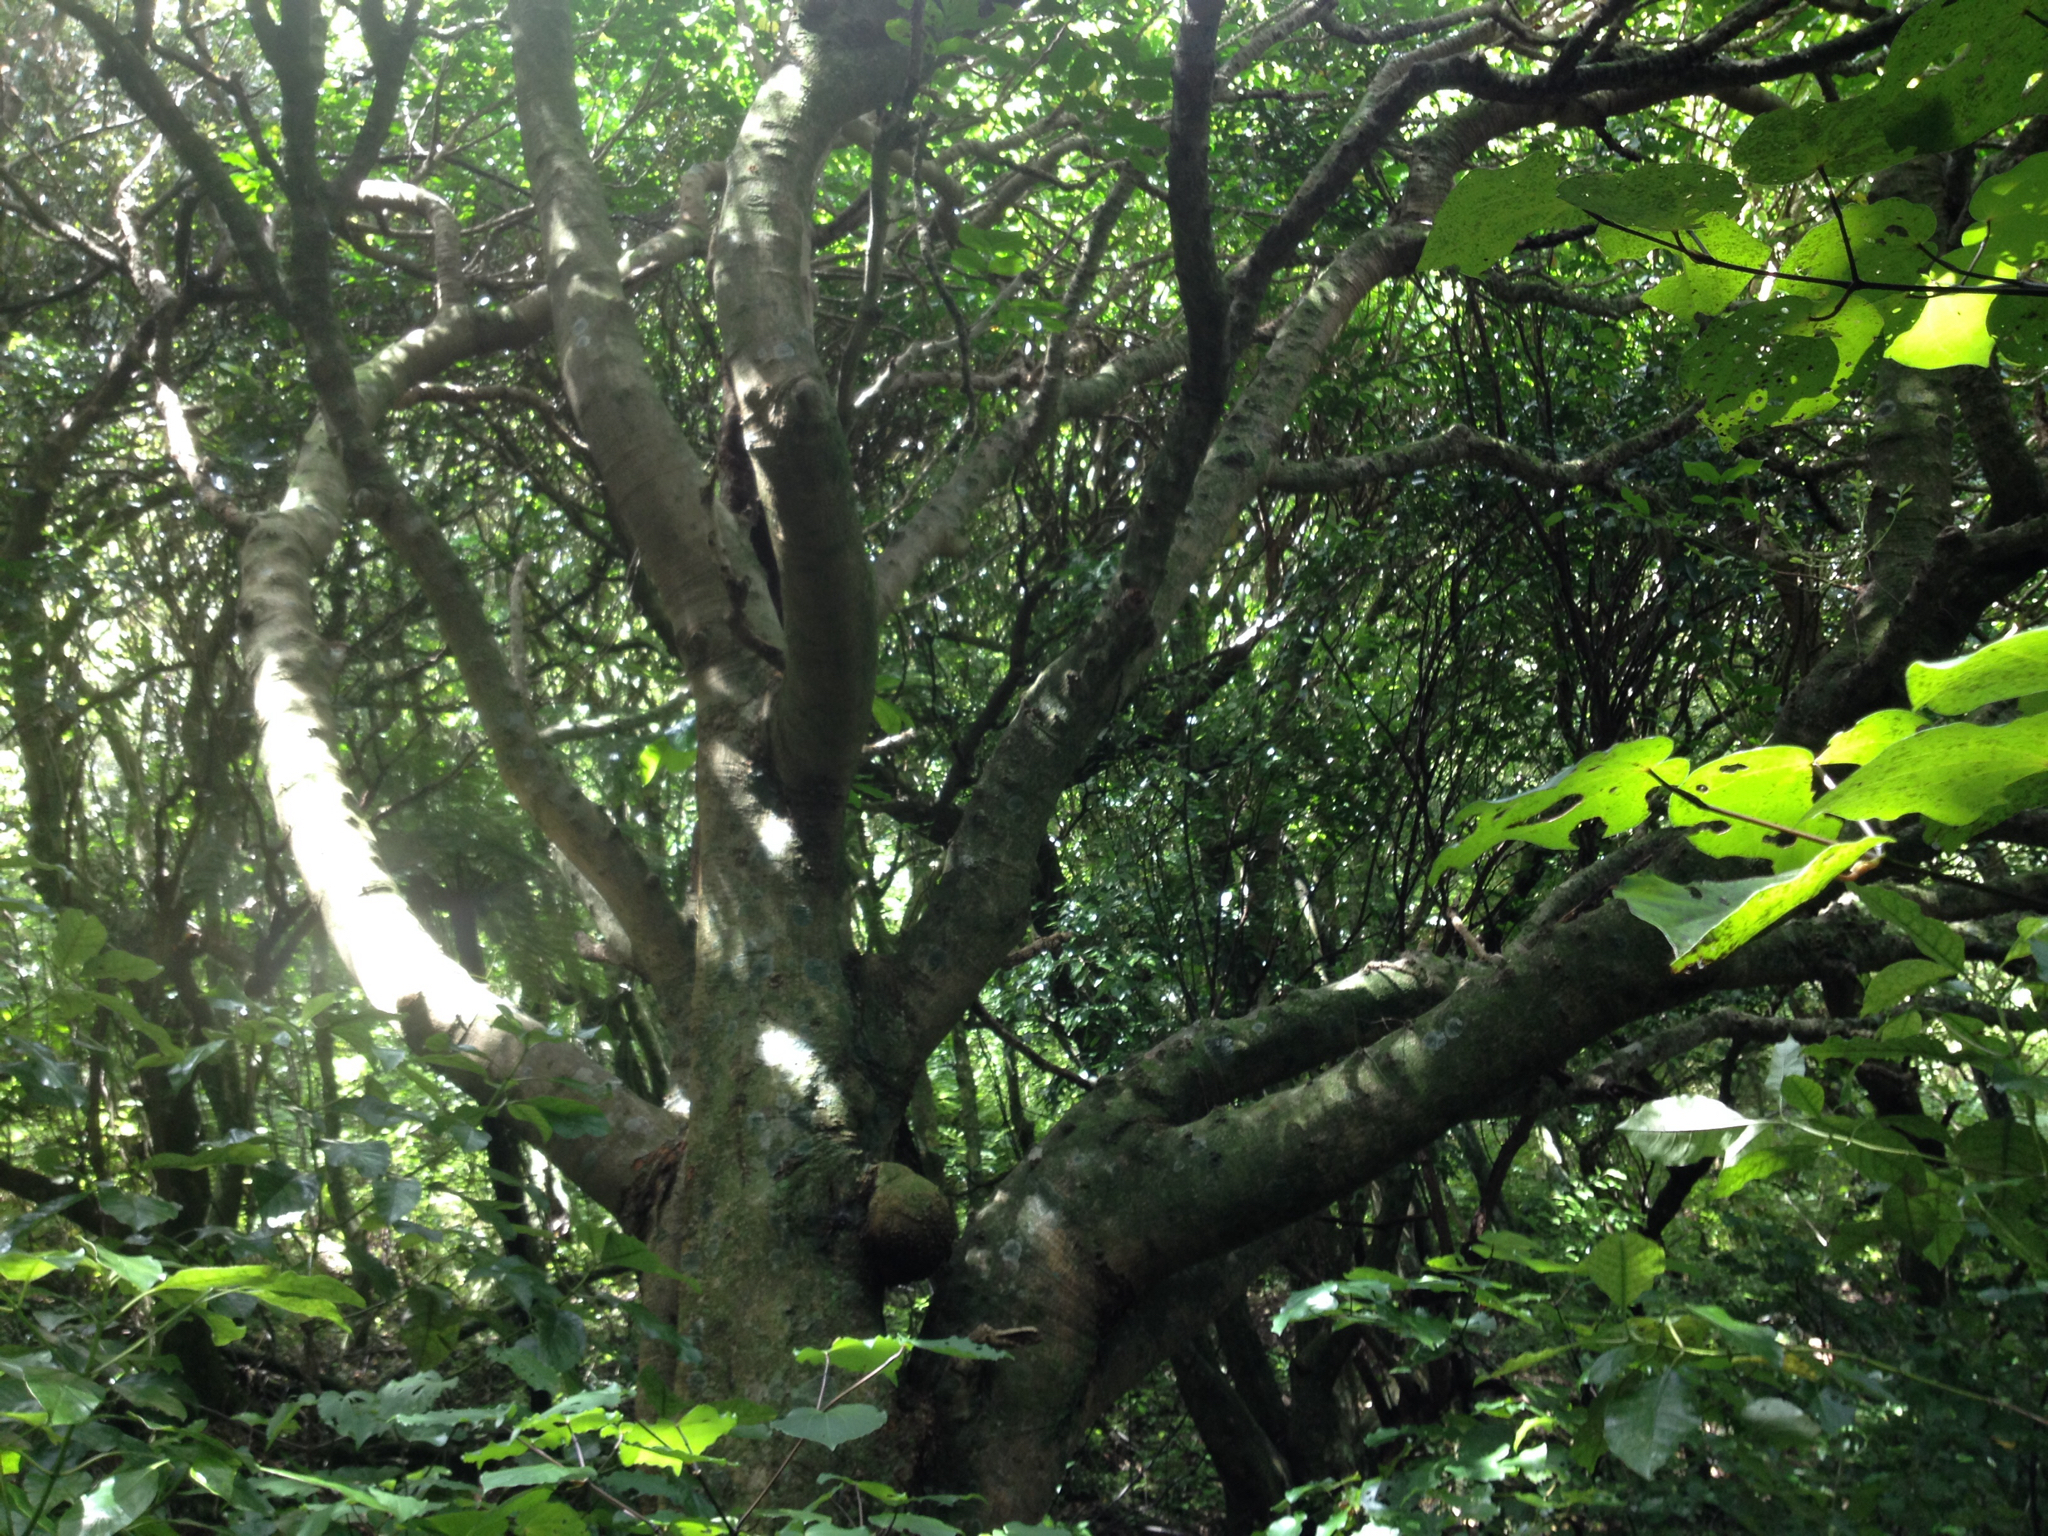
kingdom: Plantae
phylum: Tracheophyta
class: Magnoliopsida
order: Sapindales
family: Meliaceae
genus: Didymocheton
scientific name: Didymocheton spectabilis
